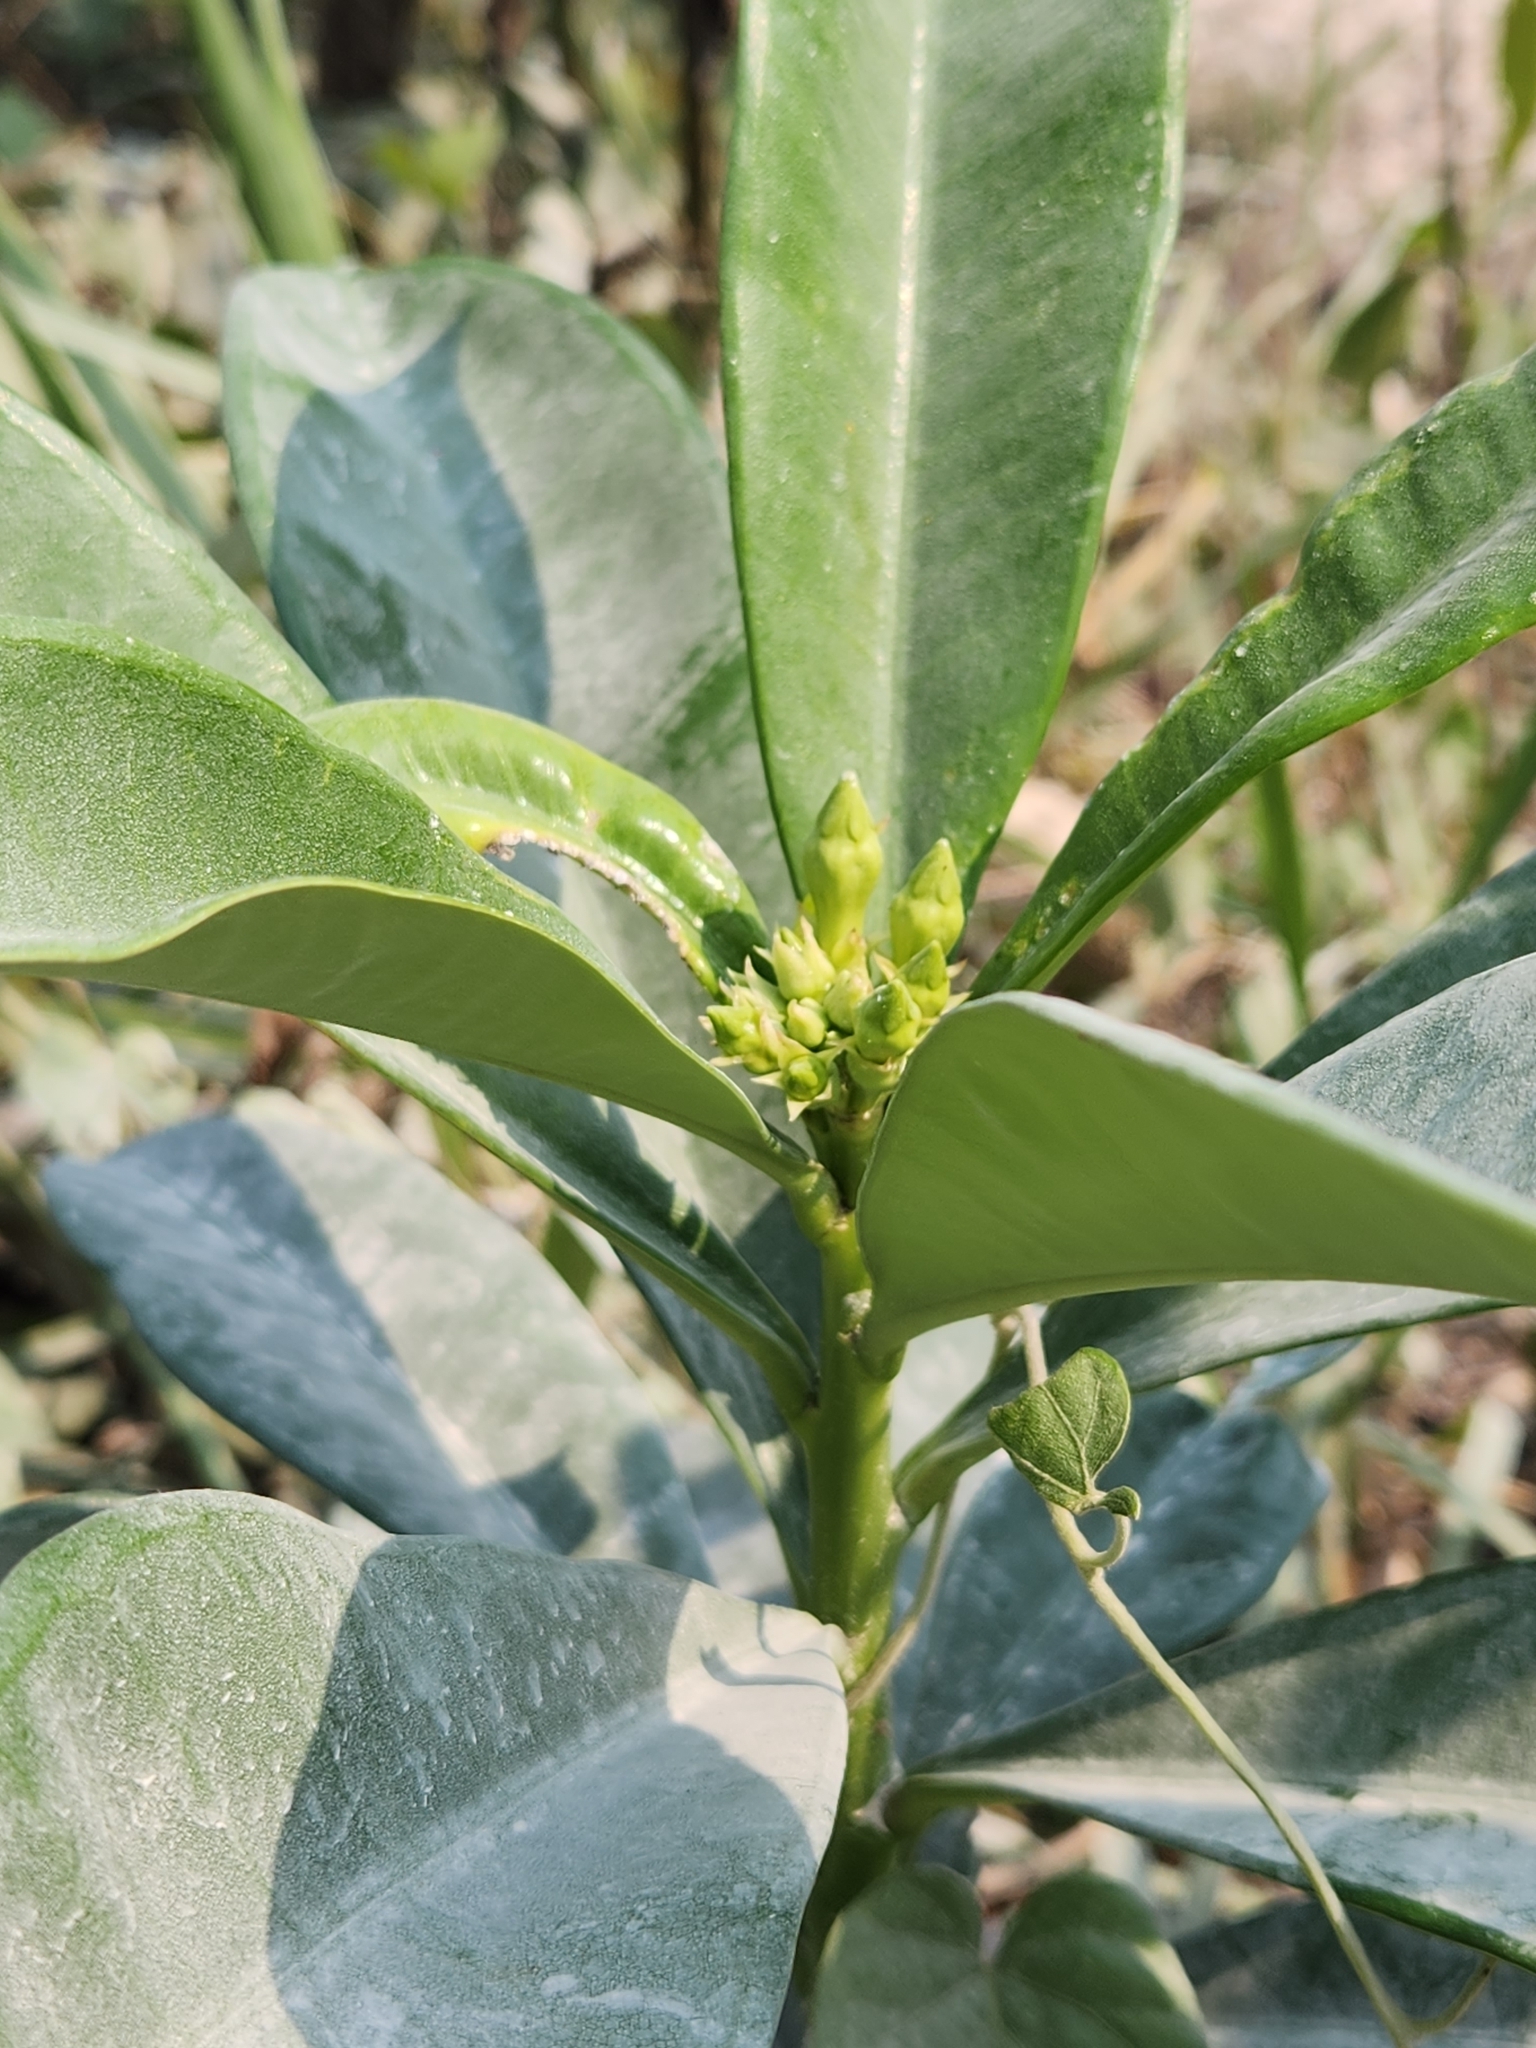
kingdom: Plantae
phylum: Tracheophyta
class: Magnoliopsida
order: Gentianales
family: Apocynaceae
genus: Thevetia
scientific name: Thevetia ahouai
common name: Broadleaf thevetia
